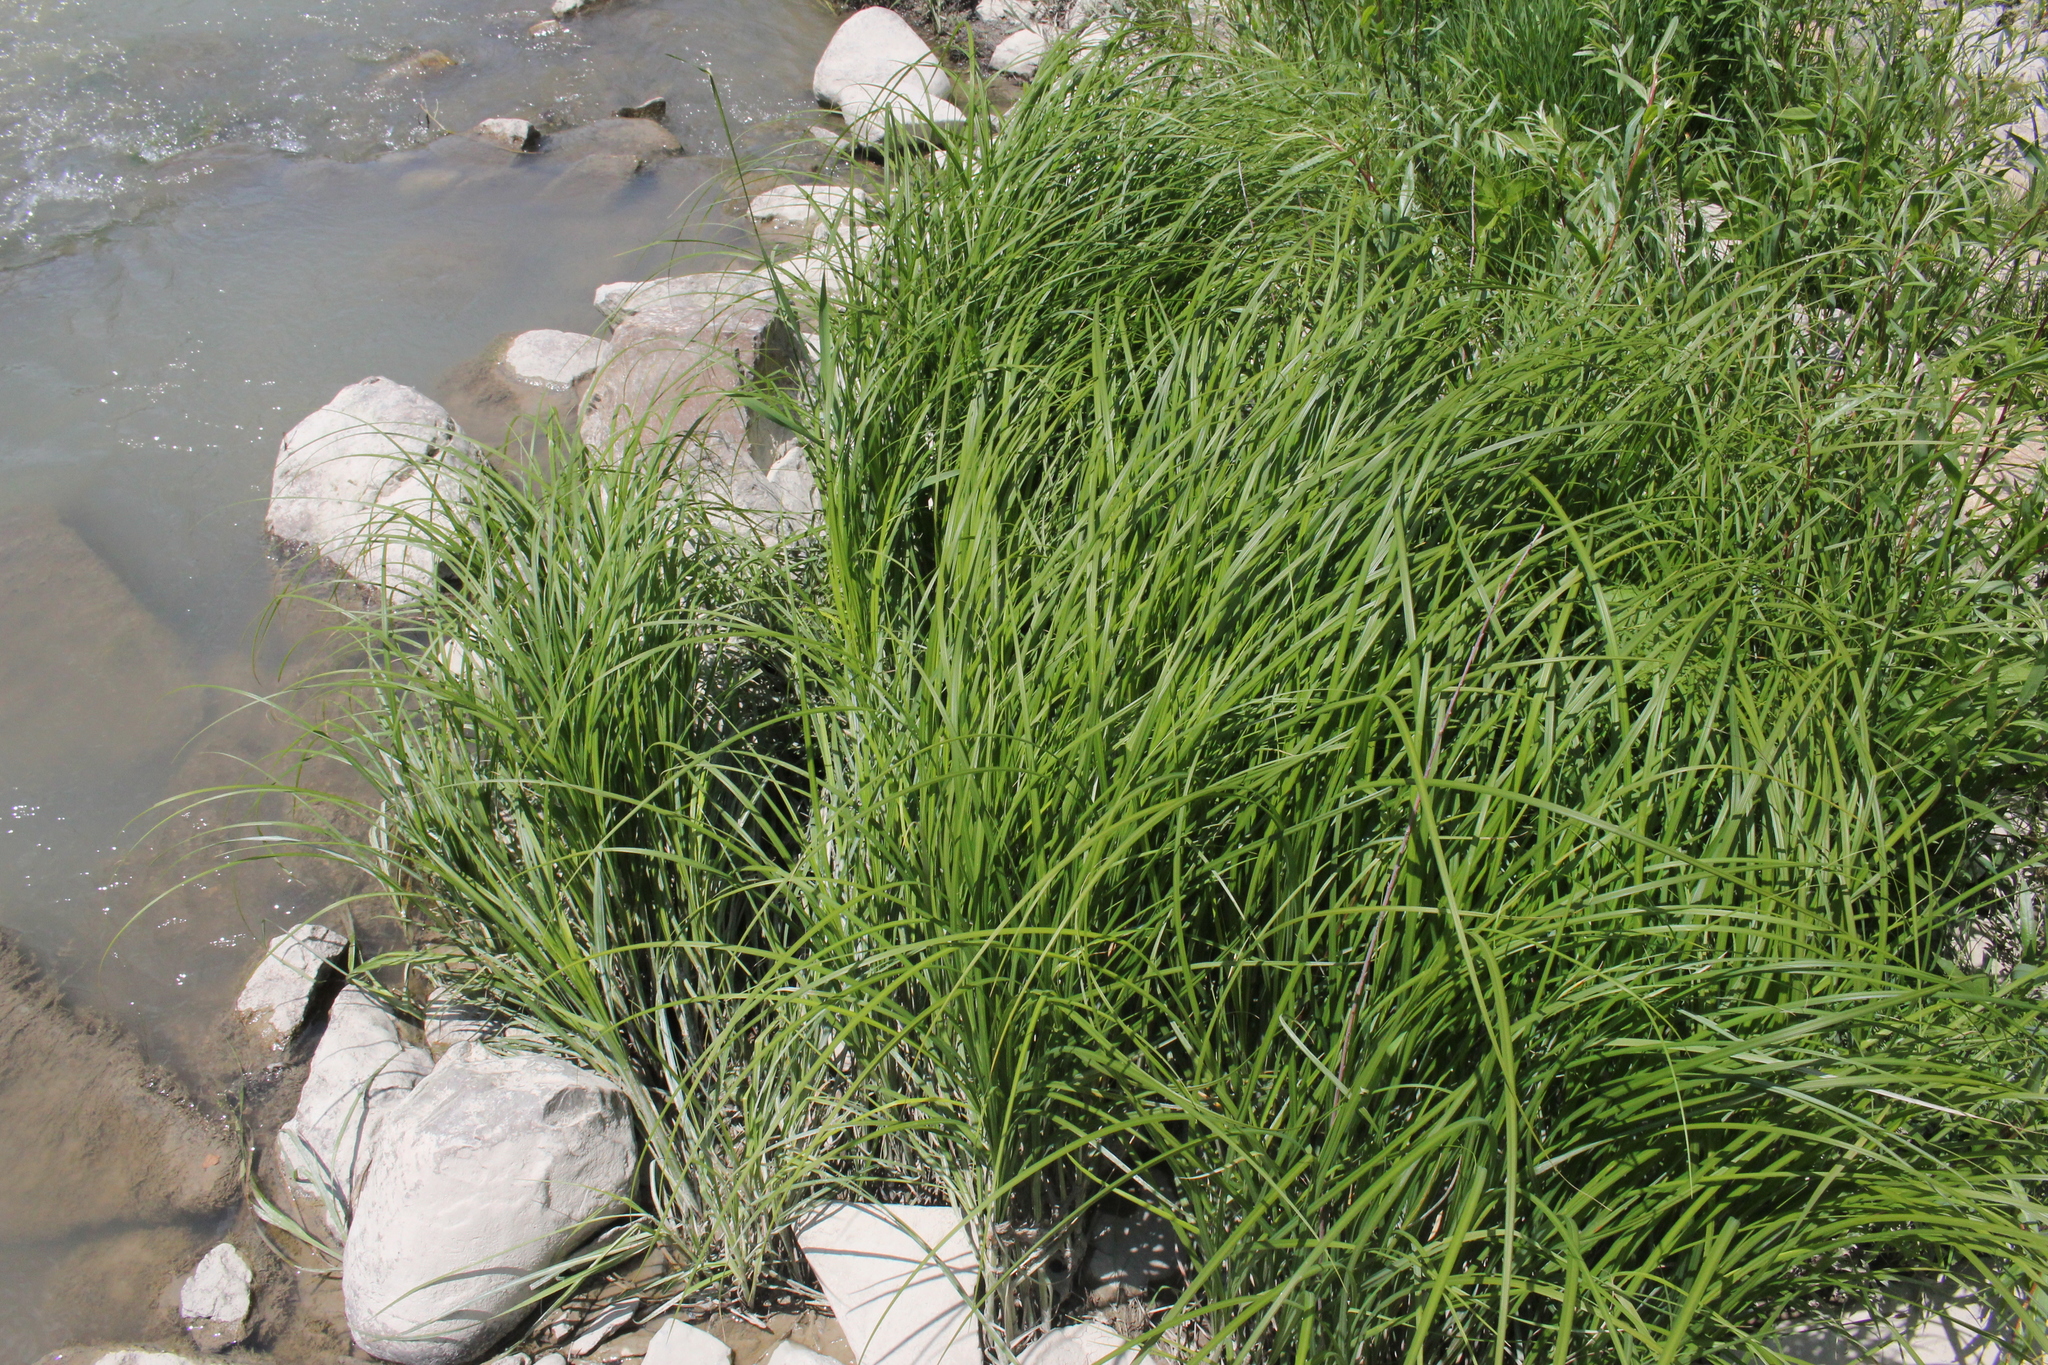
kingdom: Plantae
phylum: Tracheophyta
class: Liliopsida
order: Poales
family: Cyperaceae
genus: Carex
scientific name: Carex emoryi
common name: Emory's sedge
